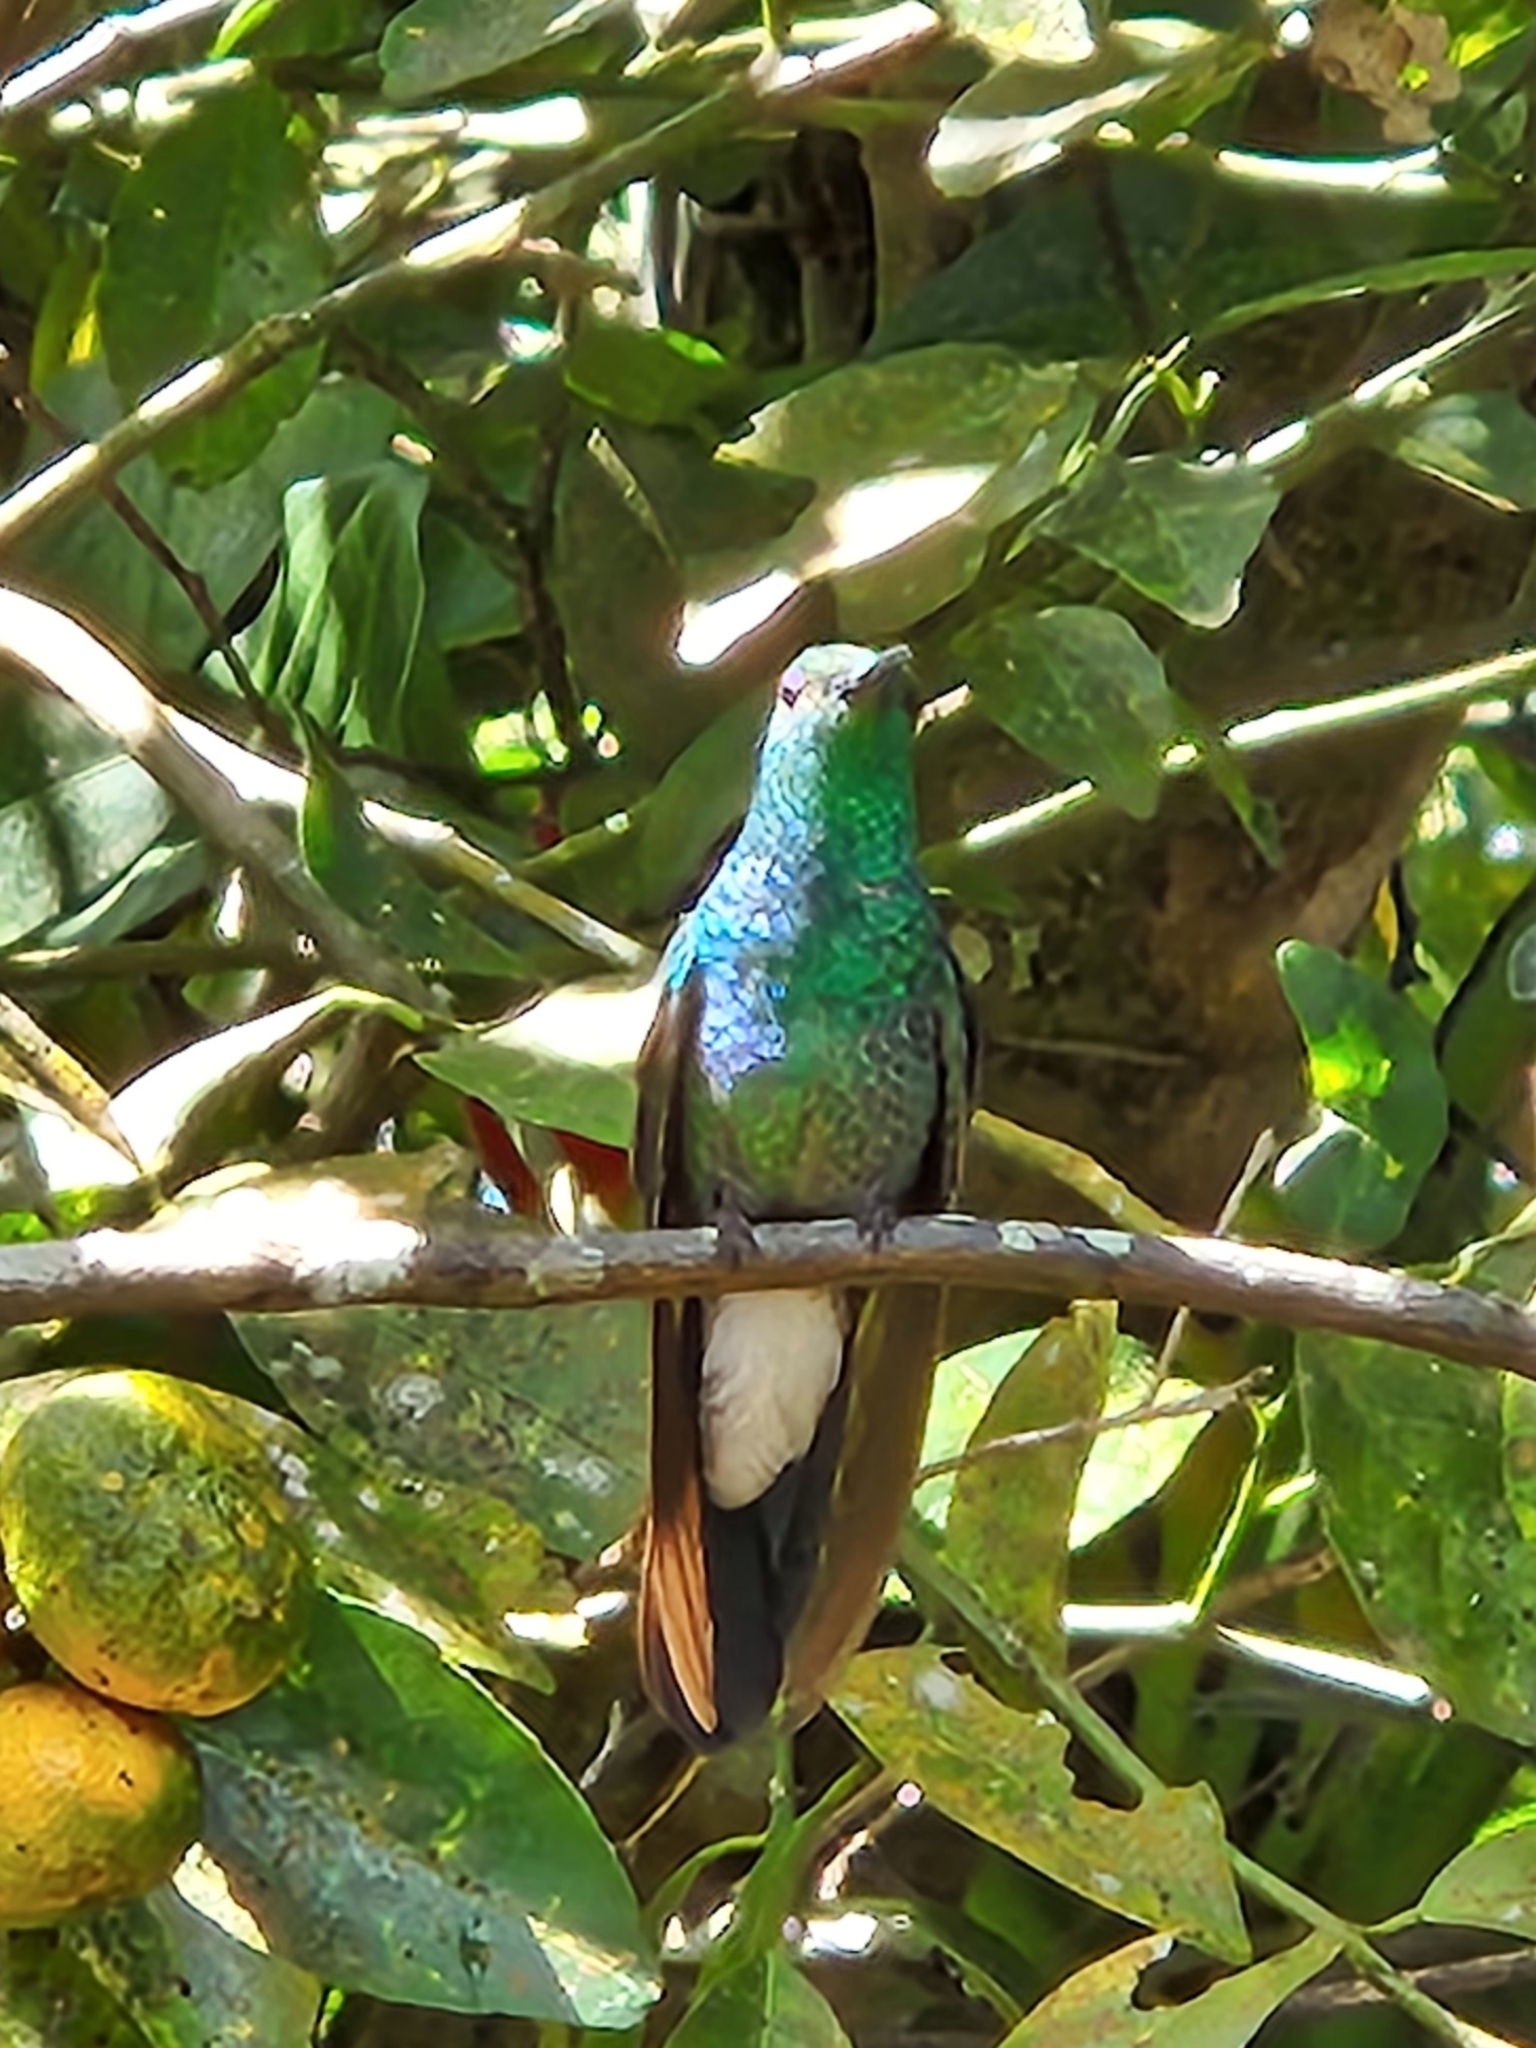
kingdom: Animalia
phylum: Chordata
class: Aves
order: Apodiformes
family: Trochilidae
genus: Chalybura
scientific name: Chalybura buffonii
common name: White-vented plumeleteer
